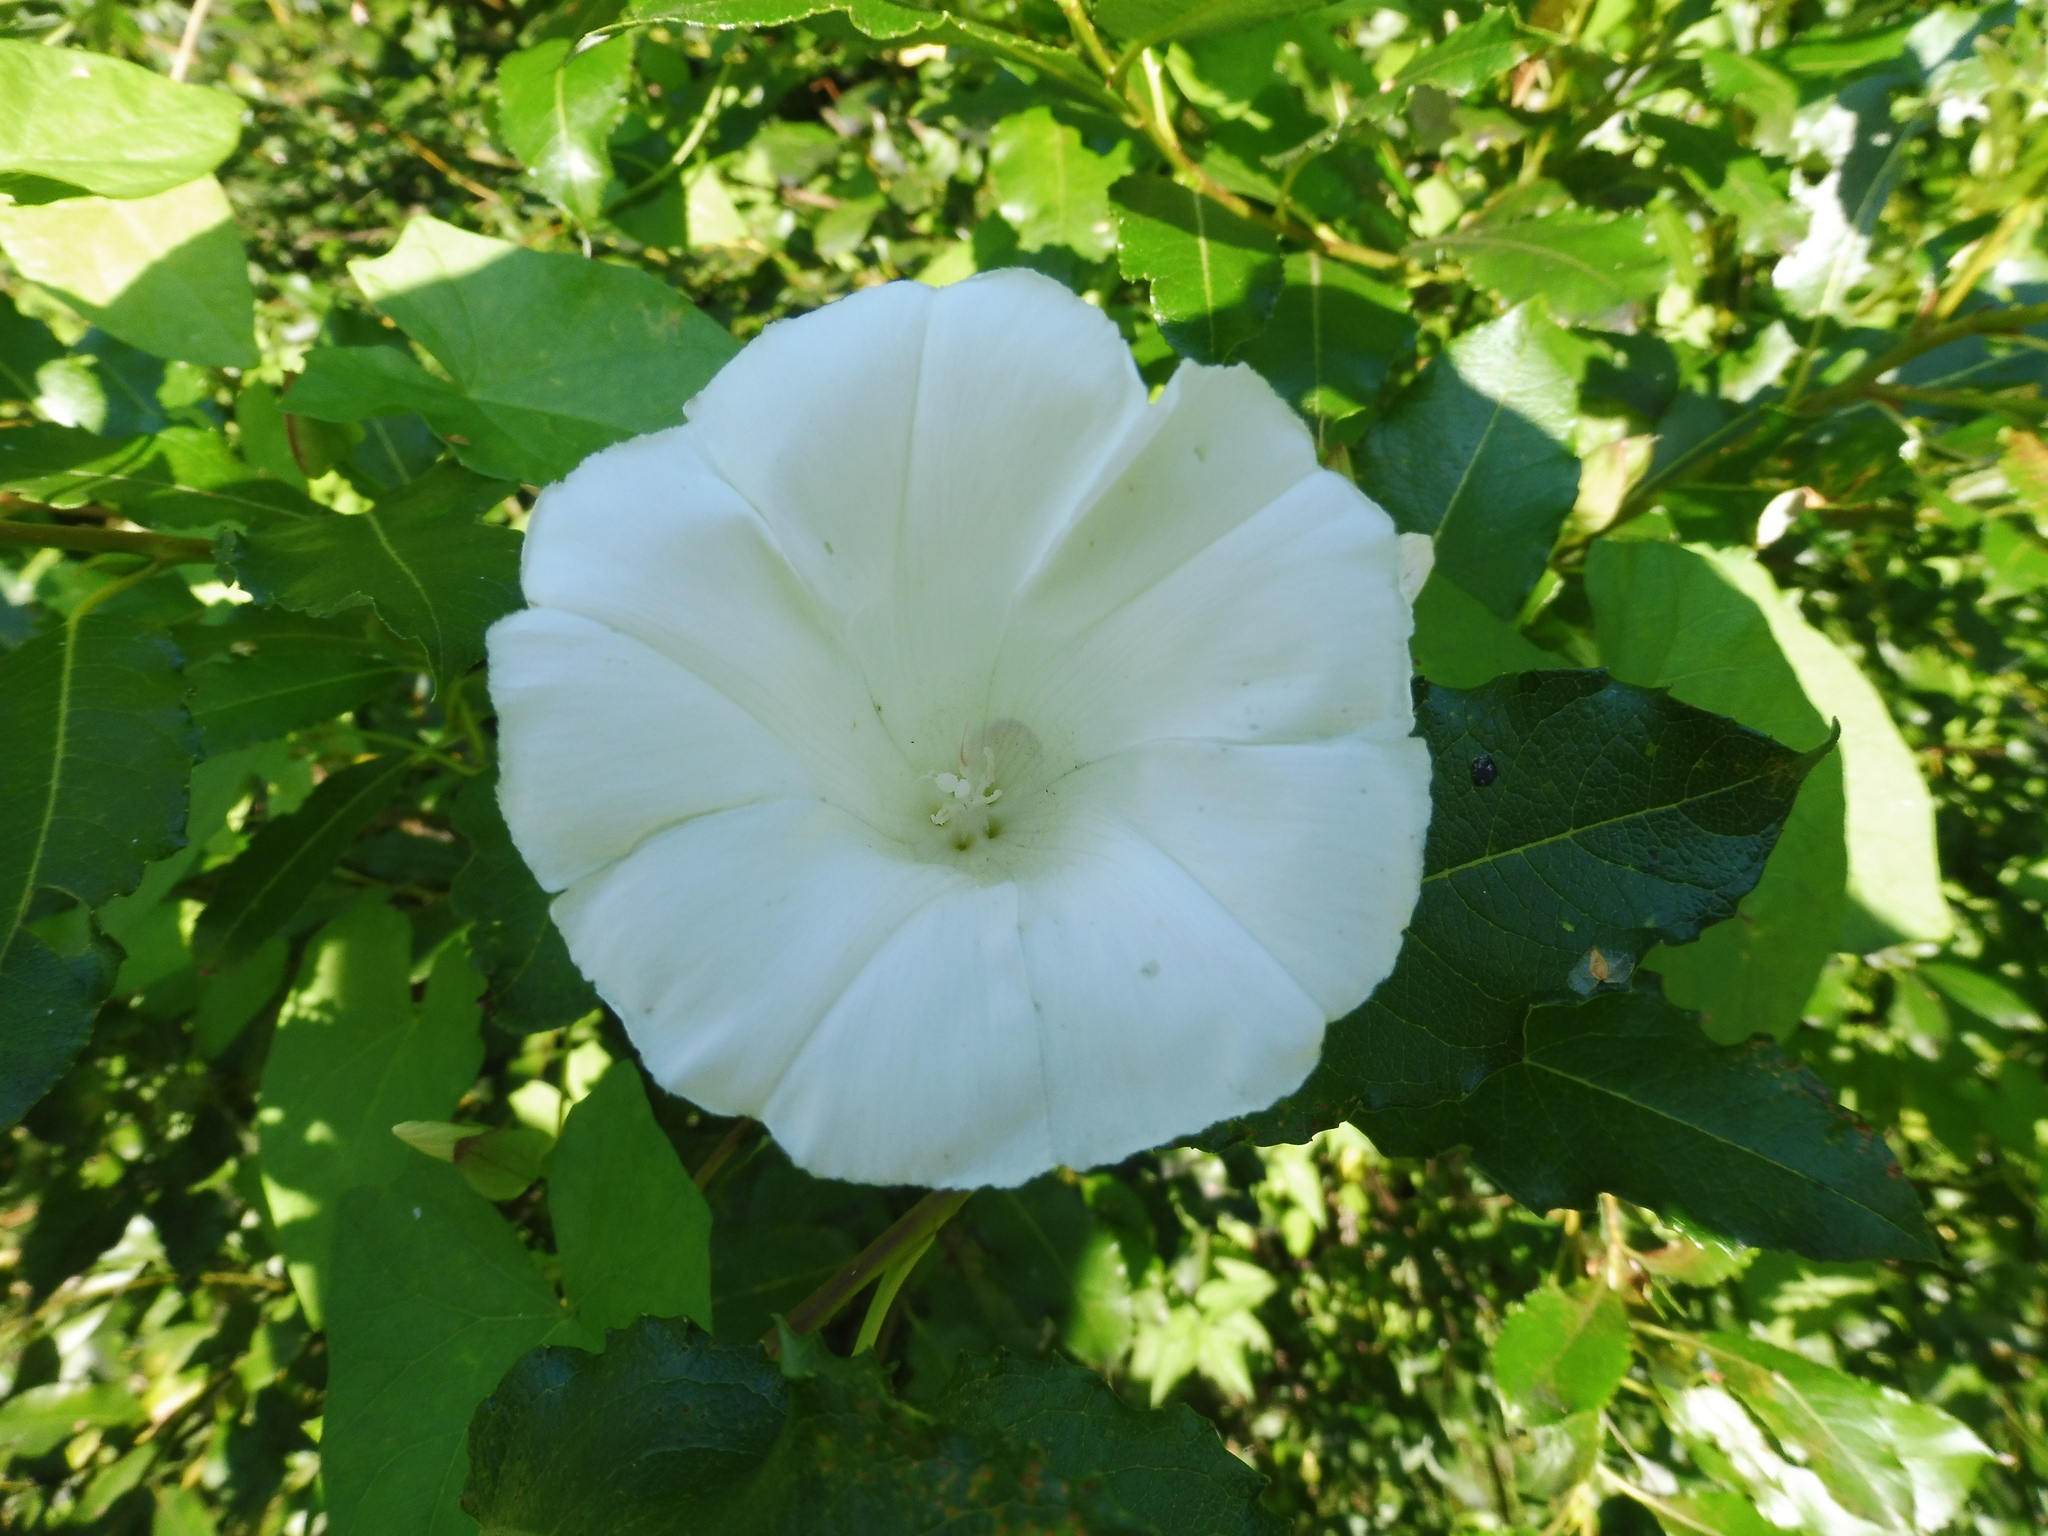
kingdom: Plantae
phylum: Tracheophyta
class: Magnoliopsida
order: Solanales
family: Convolvulaceae
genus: Calystegia
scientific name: Calystegia sepium
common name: Hedge bindweed
